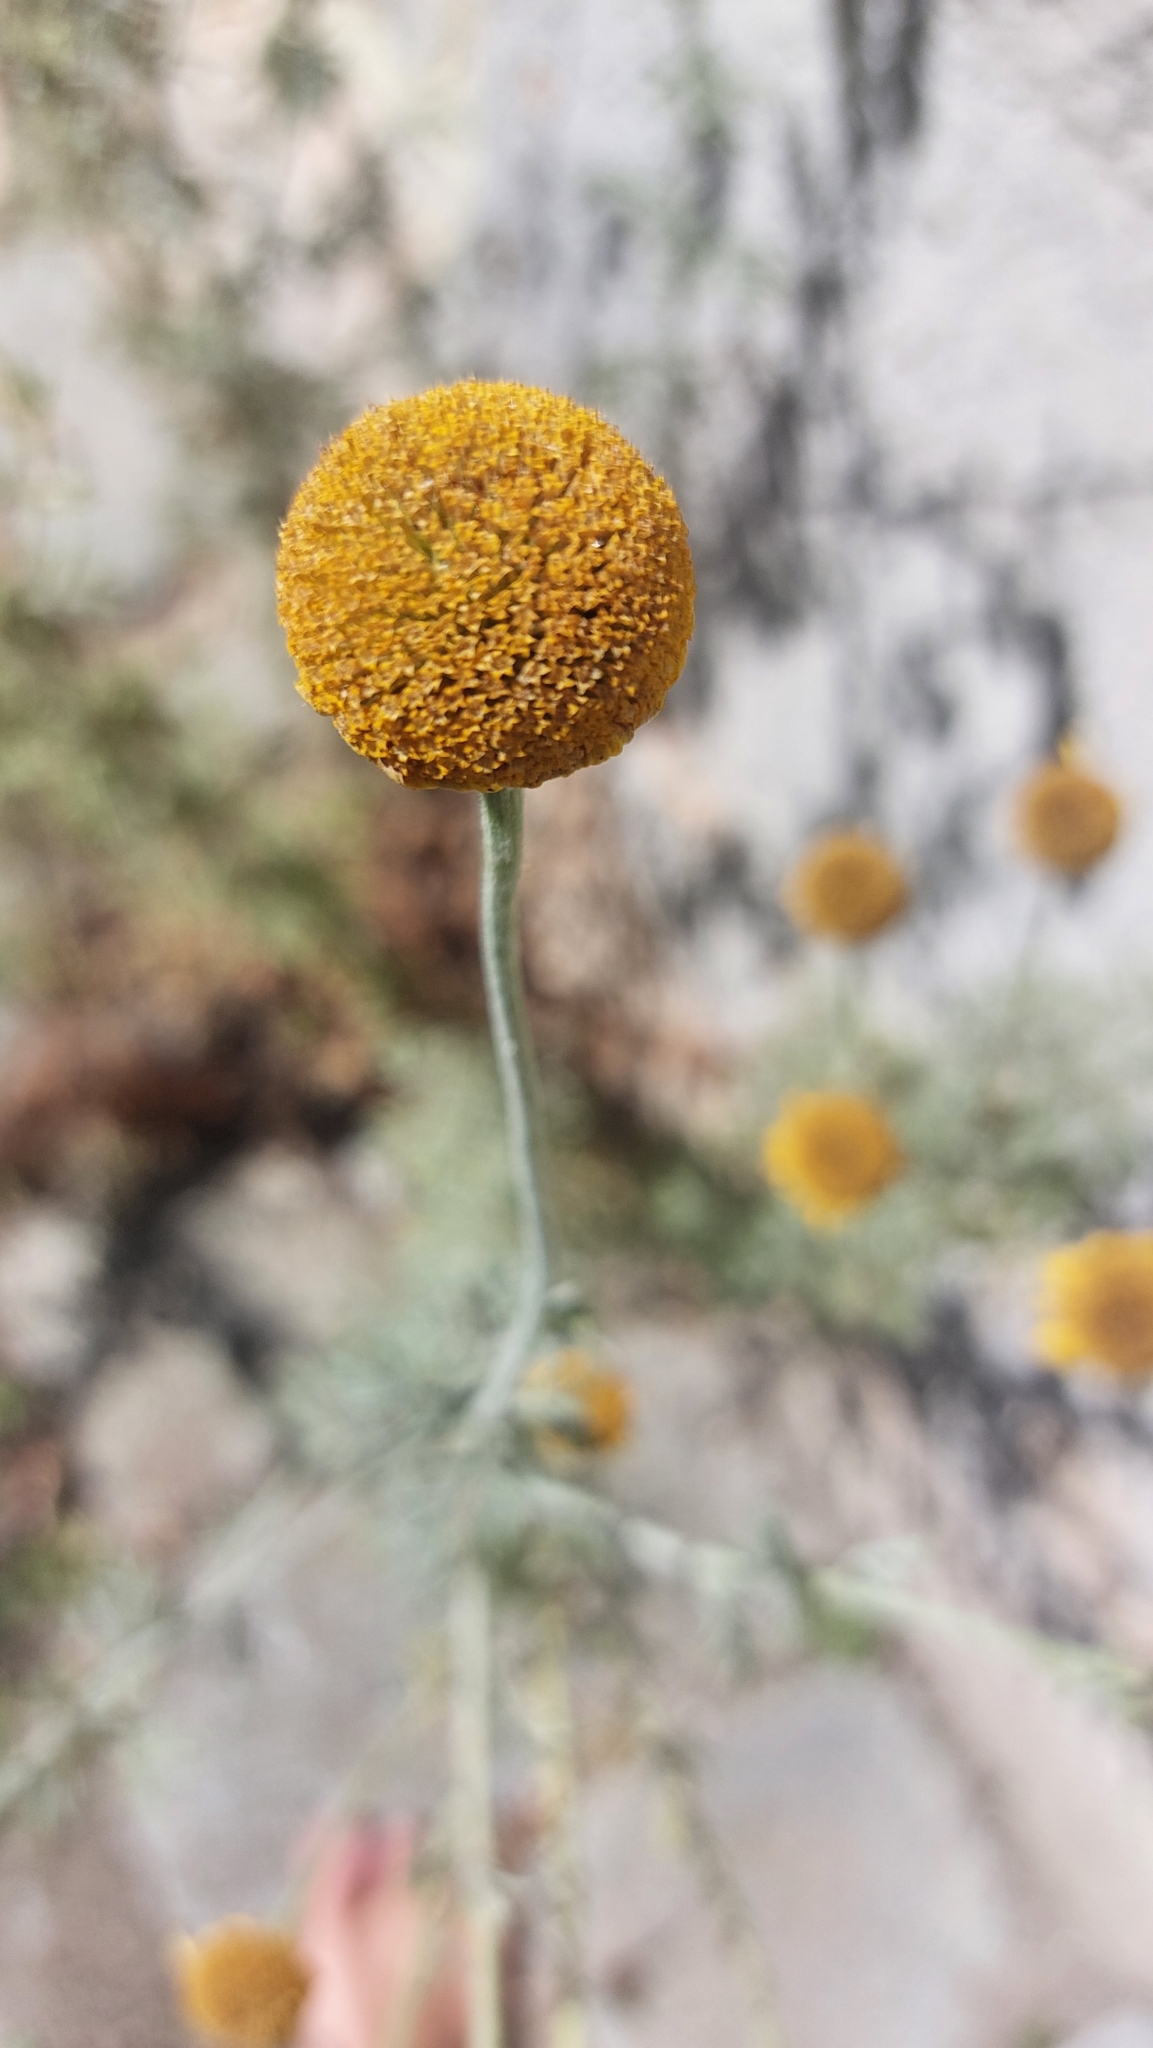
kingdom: Plantae
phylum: Tracheophyta
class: Magnoliopsida
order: Asterales
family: Asteraceae
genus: Cota
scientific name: Cota tinctoria
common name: Golden chamomile
